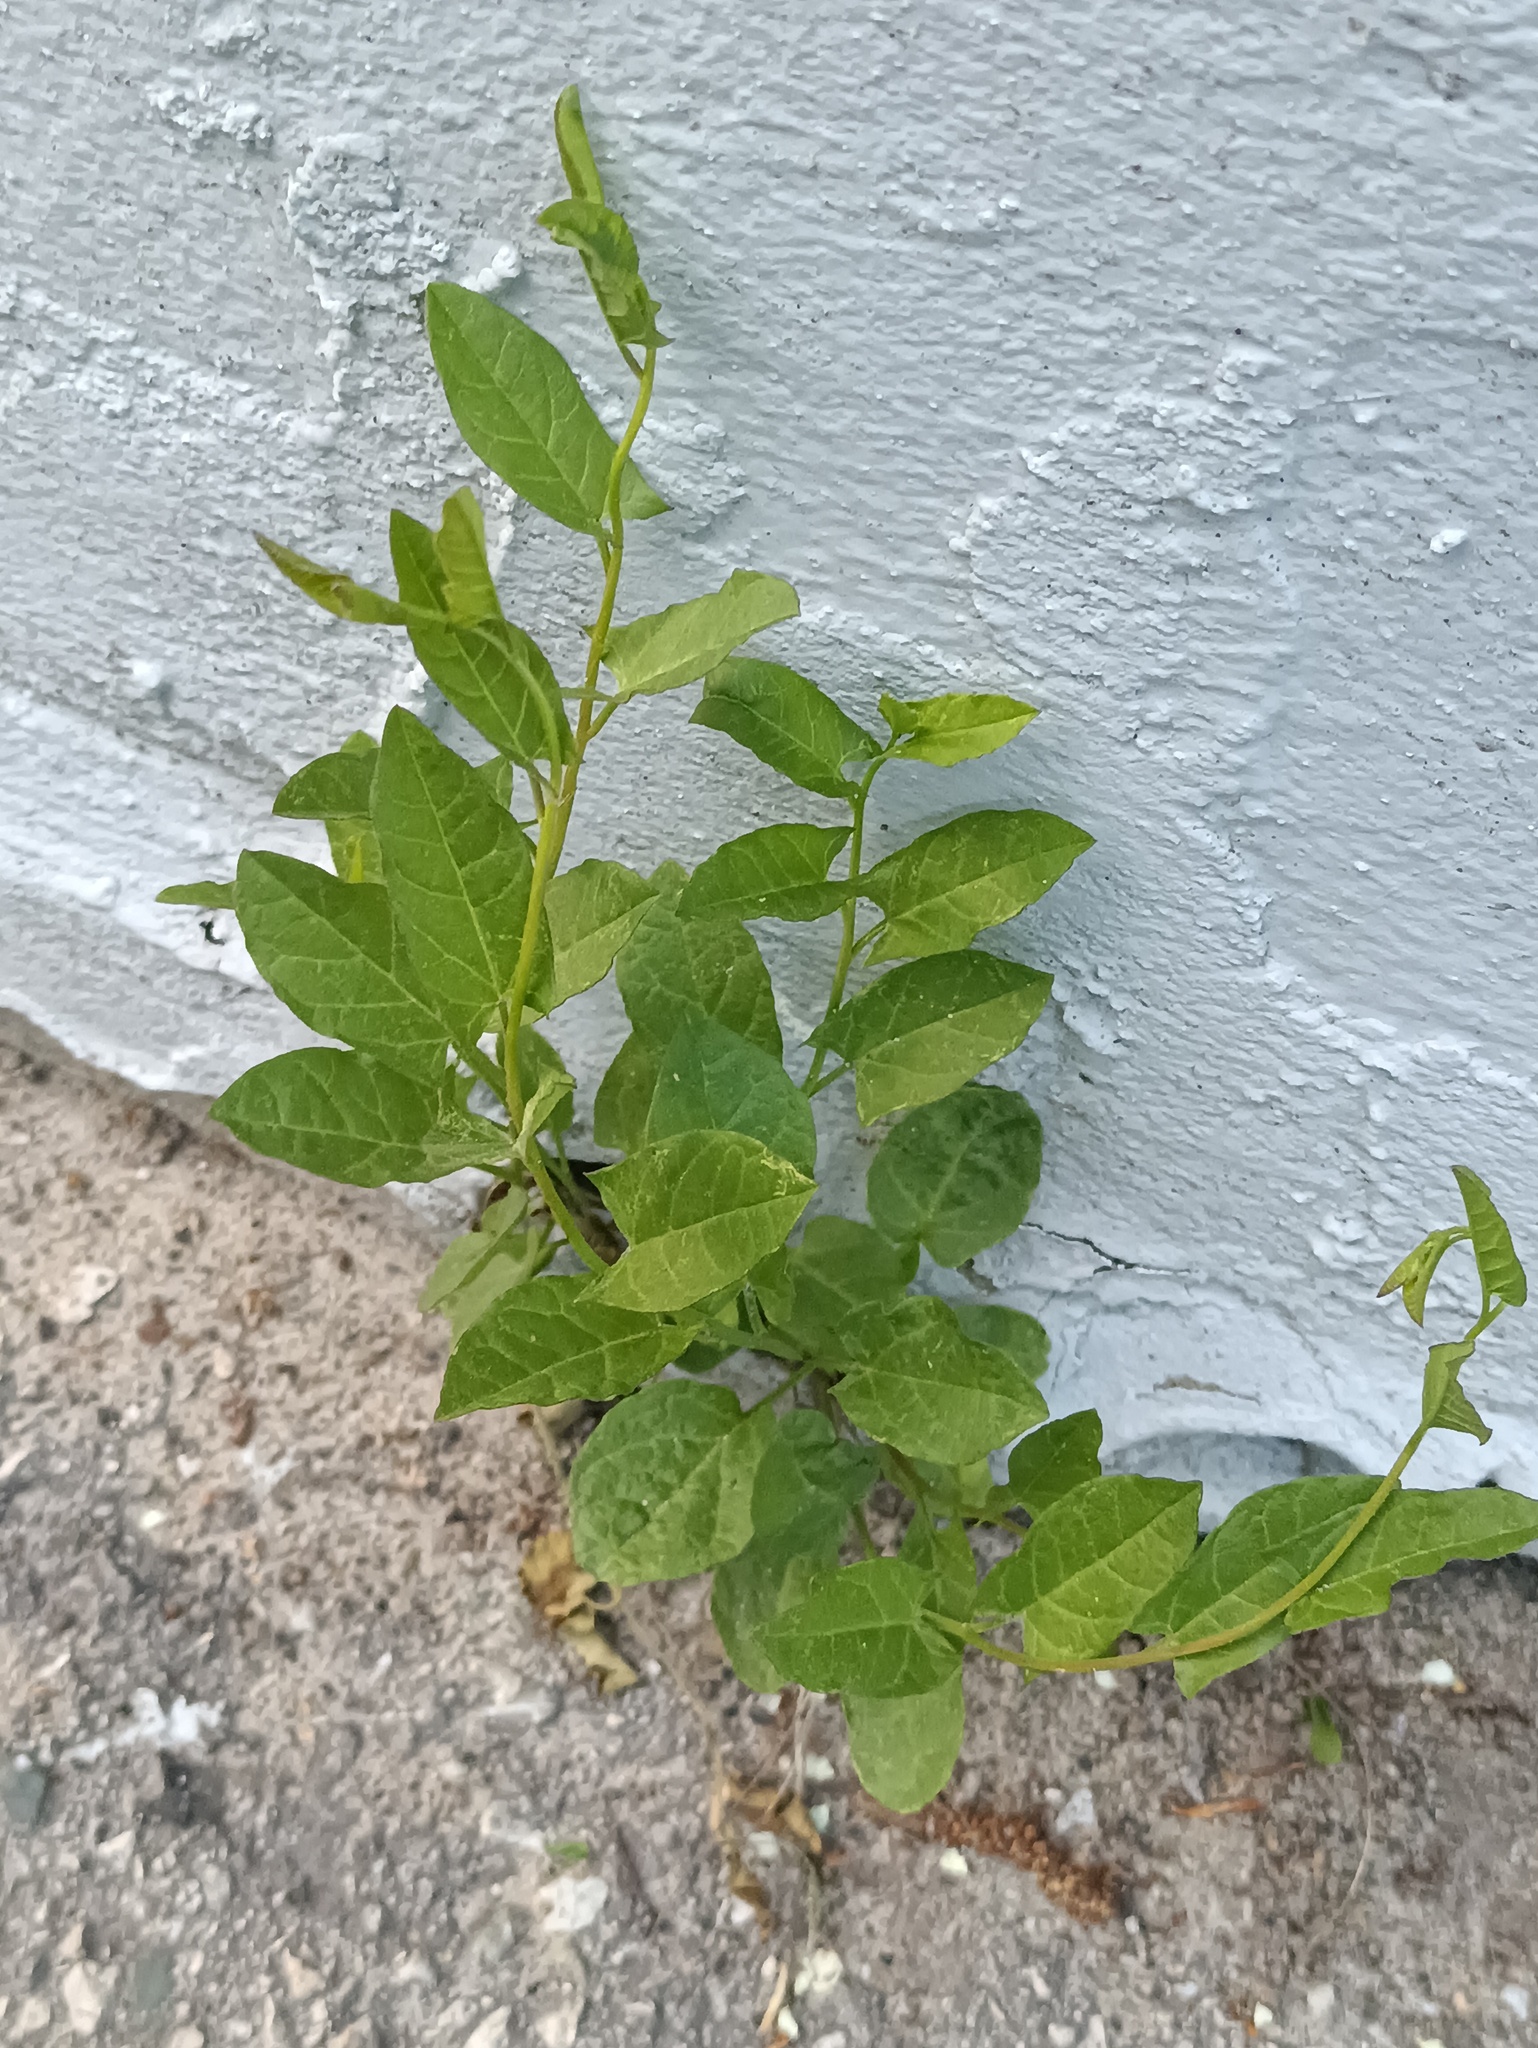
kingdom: Plantae
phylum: Tracheophyta
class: Magnoliopsida
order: Solanales
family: Convolvulaceae
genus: Convolvulus
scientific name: Convolvulus arvensis
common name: Field bindweed
